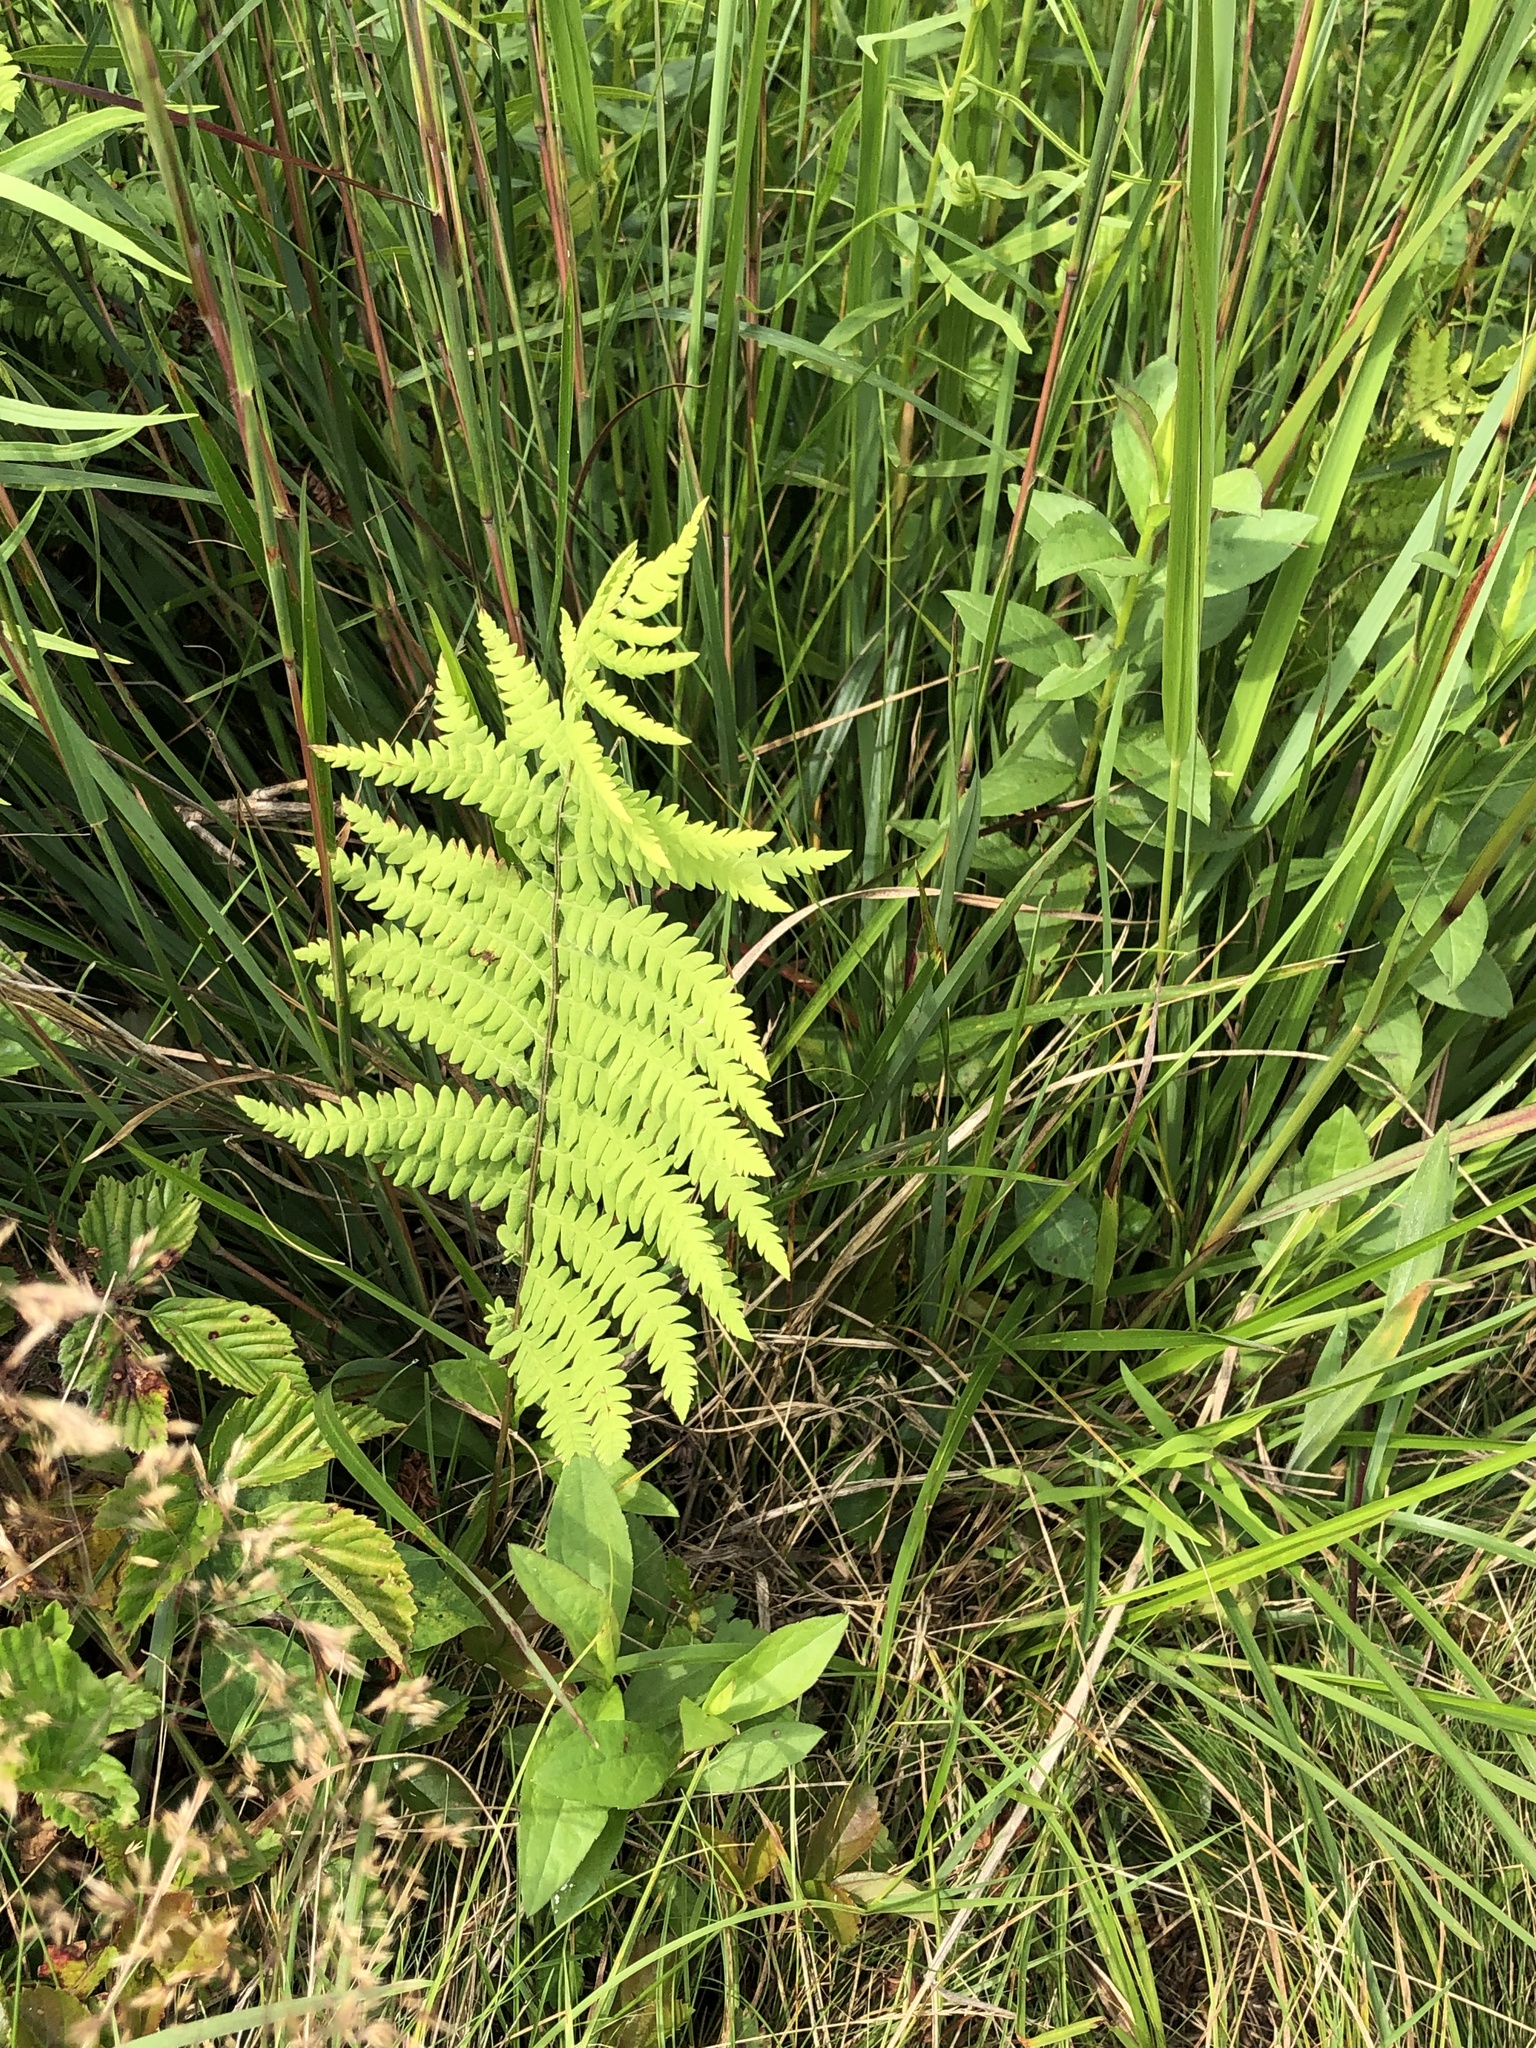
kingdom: Plantae
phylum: Tracheophyta
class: Polypodiopsida
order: Polypodiales
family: Thelypteridaceae
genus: Thelypteris
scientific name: Thelypteris palustris
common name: Marsh fern
